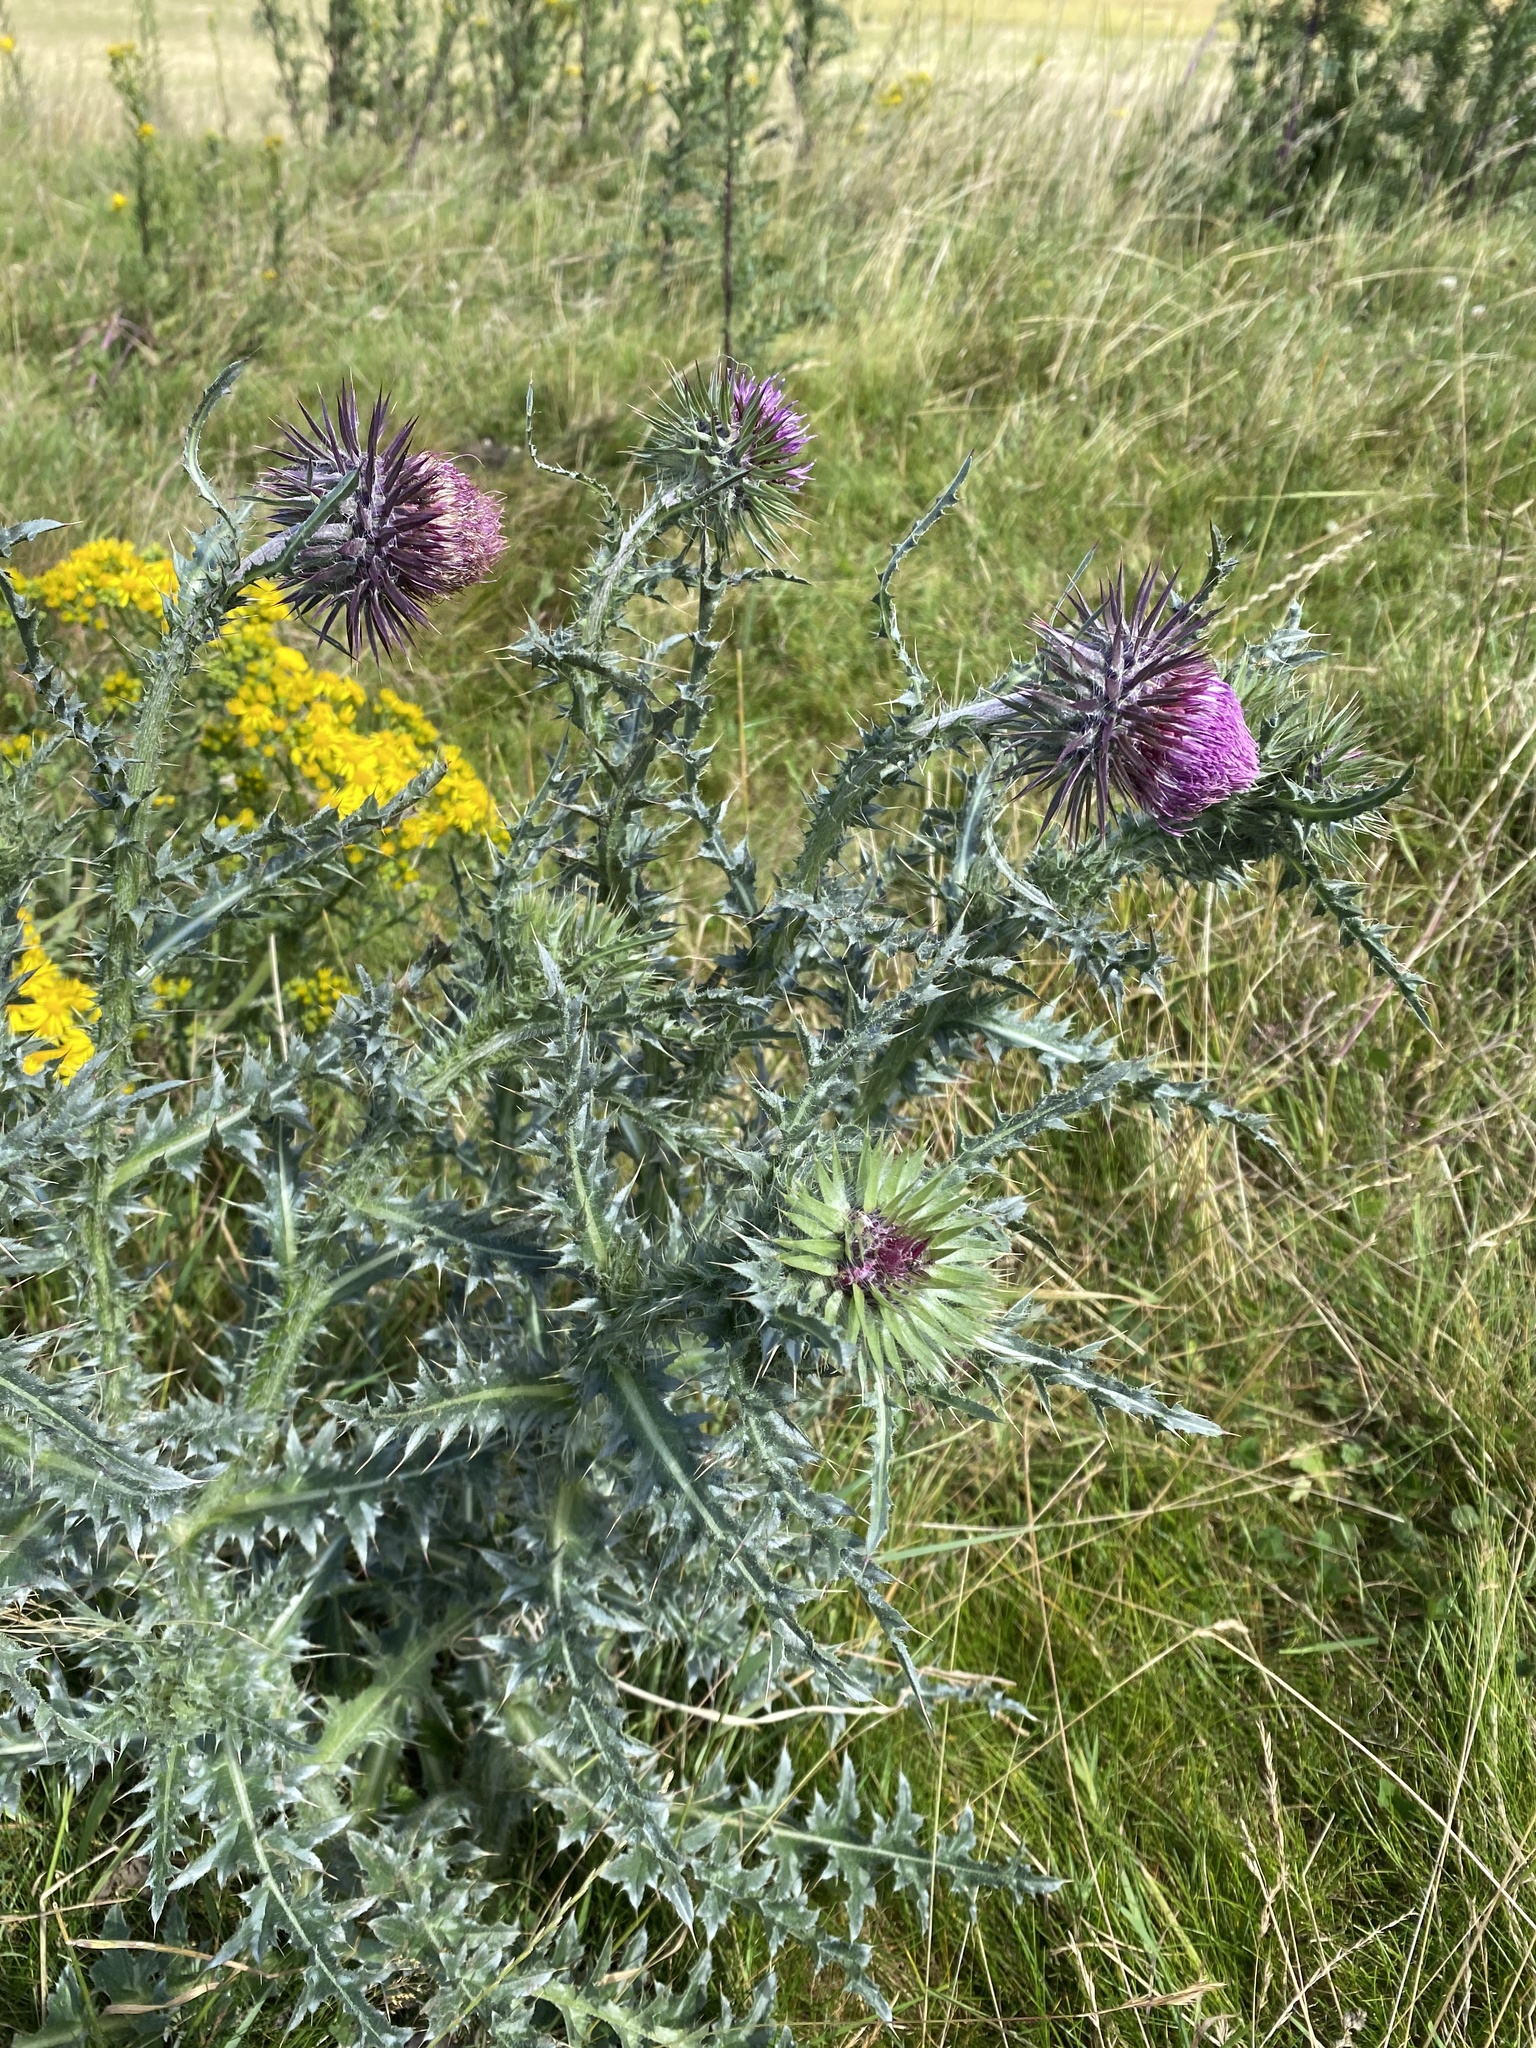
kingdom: Plantae
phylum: Tracheophyta
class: Magnoliopsida
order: Asterales
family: Asteraceae
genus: Carduus
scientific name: Carduus nutans
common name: Musk thistle
